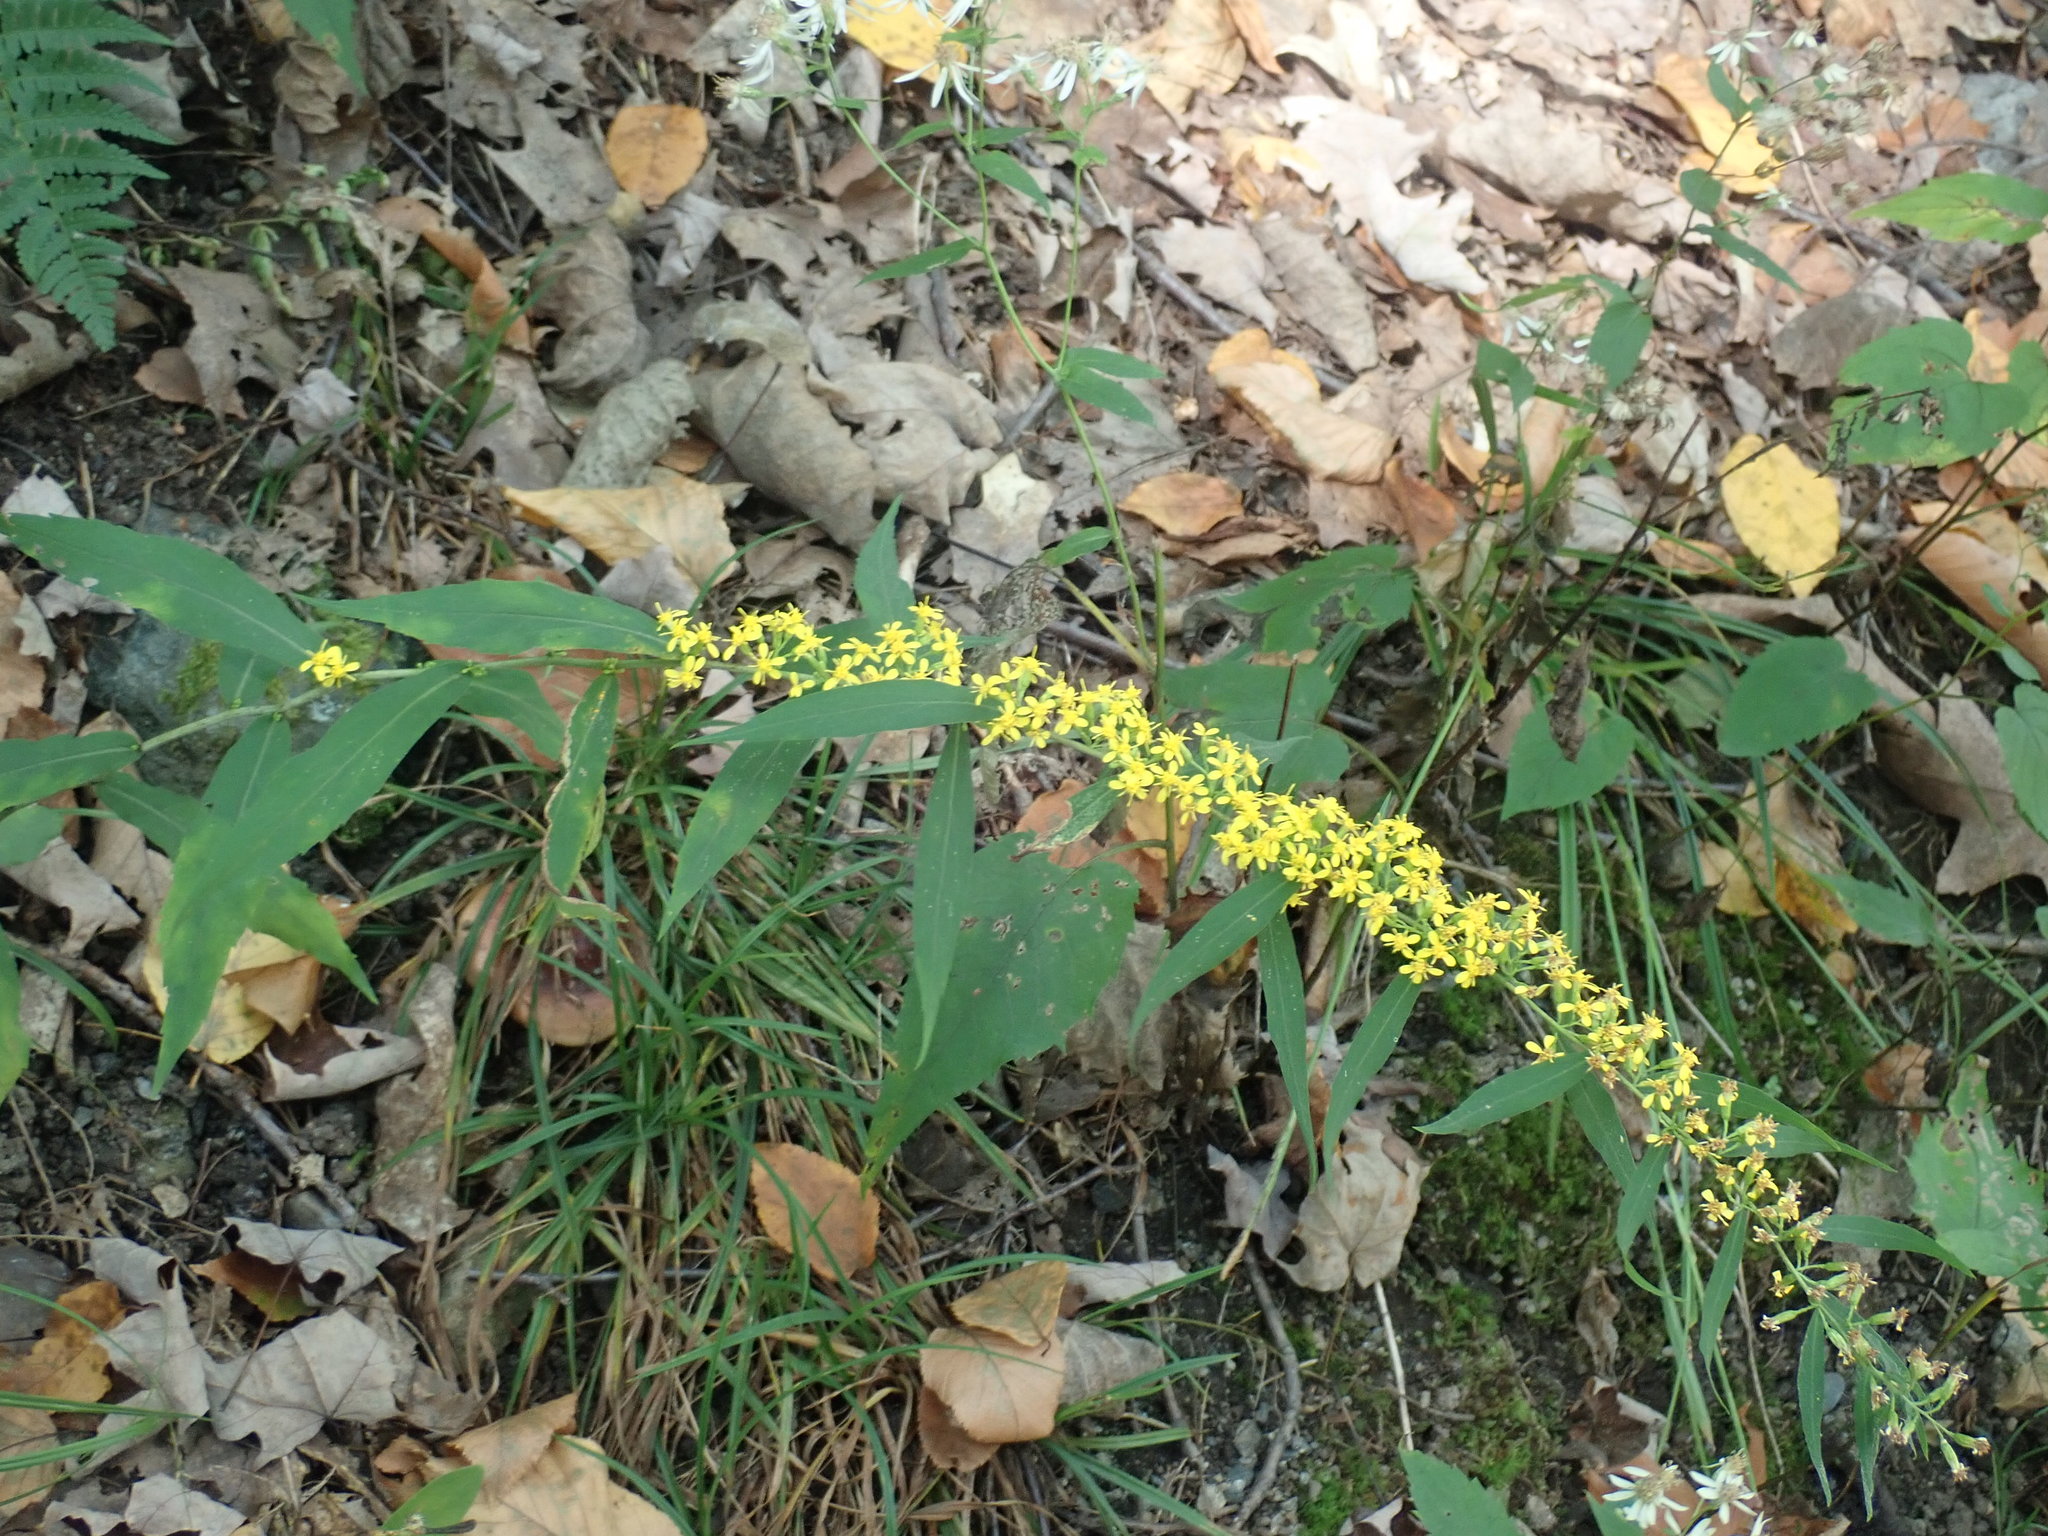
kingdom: Plantae
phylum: Tracheophyta
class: Magnoliopsida
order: Asterales
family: Asteraceae
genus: Solidago
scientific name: Solidago caesia
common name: Woodland goldenrod
